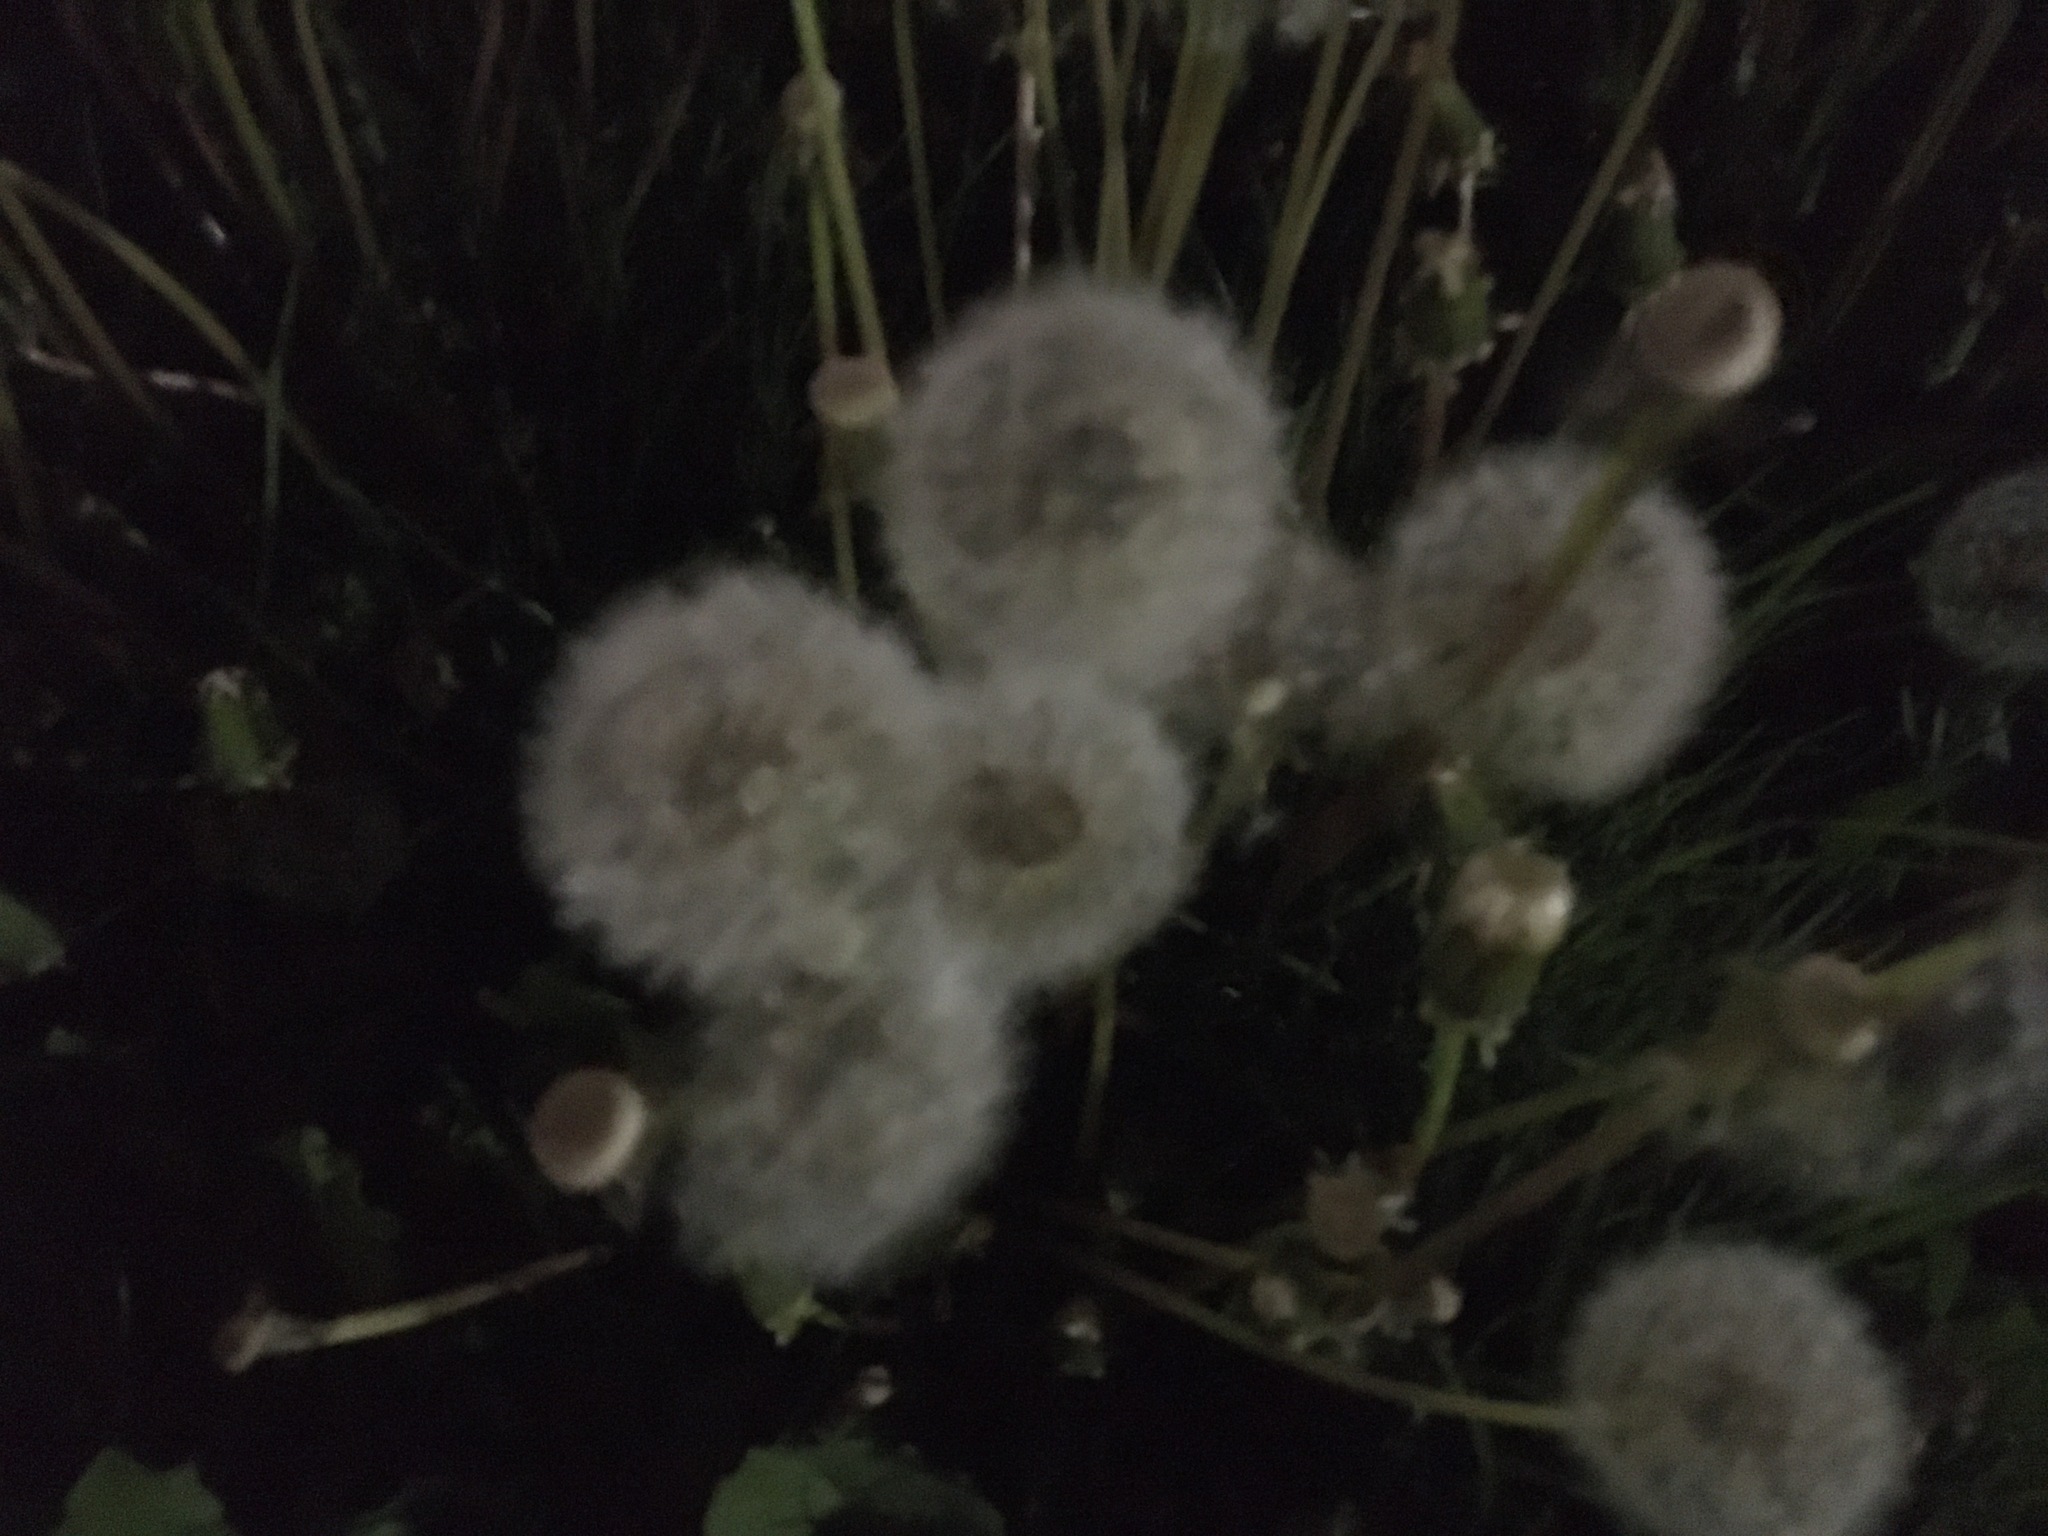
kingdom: Plantae
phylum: Tracheophyta
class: Magnoliopsida
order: Asterales
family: Asteraceae
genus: Taraxacum
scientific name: Taraxacum officinale
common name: Common dandelion
